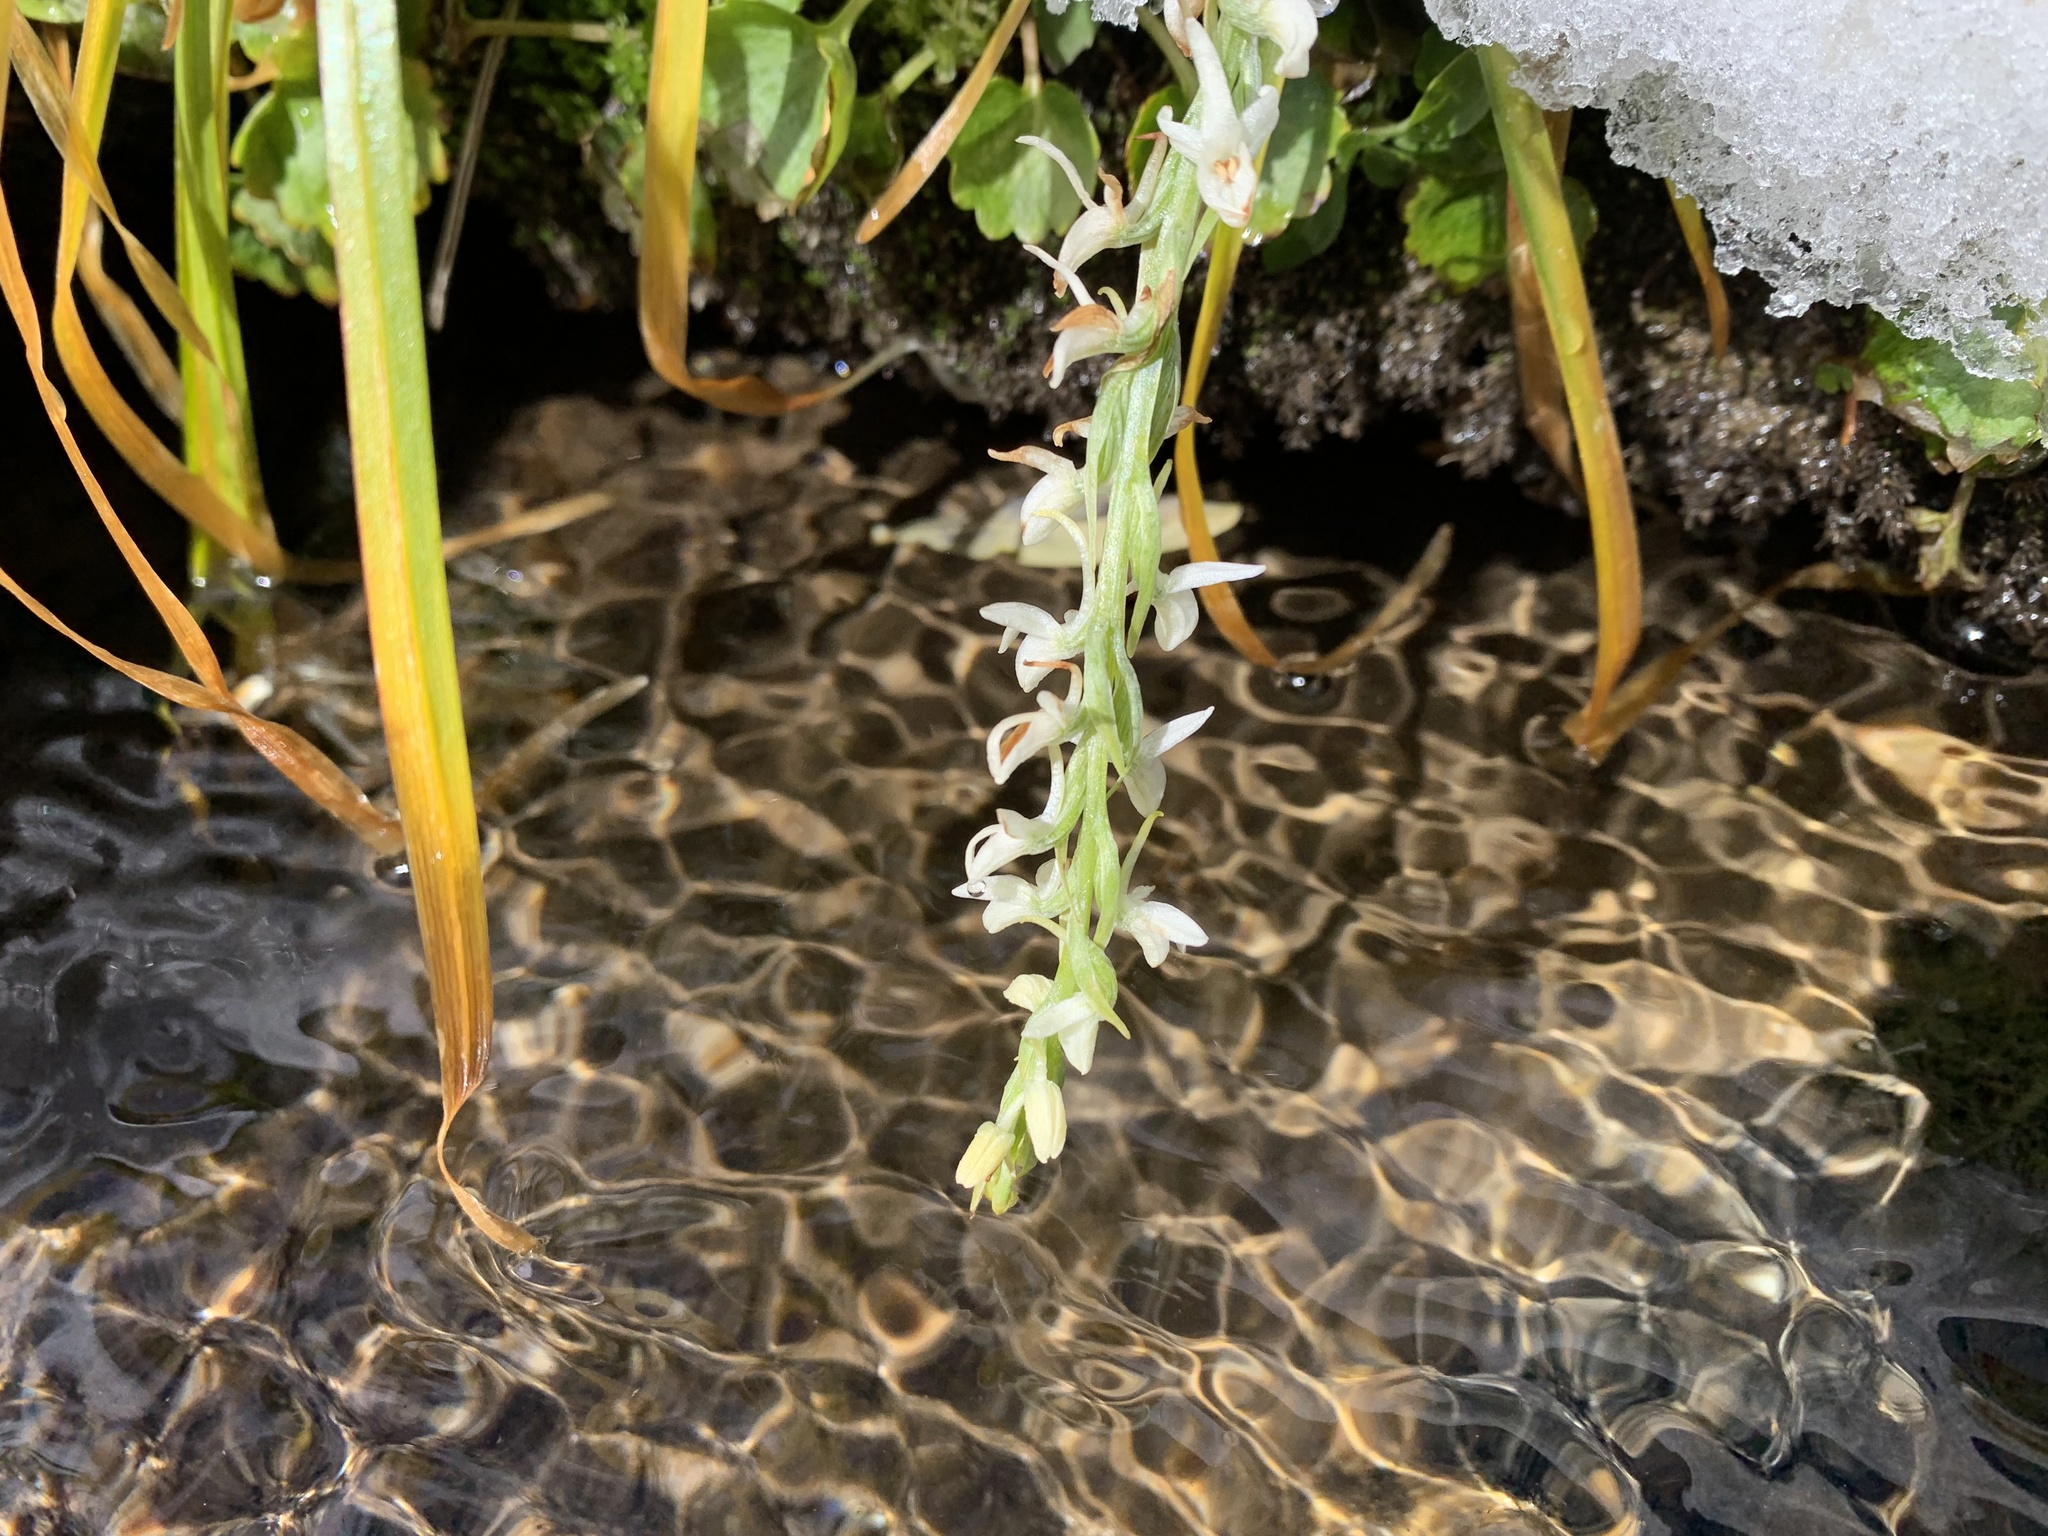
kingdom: Plantae
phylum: Tracheophyta
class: Liliopsida
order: Asparagales
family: Orchidaceae
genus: Platanthera
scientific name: Platanthera dilatata
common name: Bog candles
